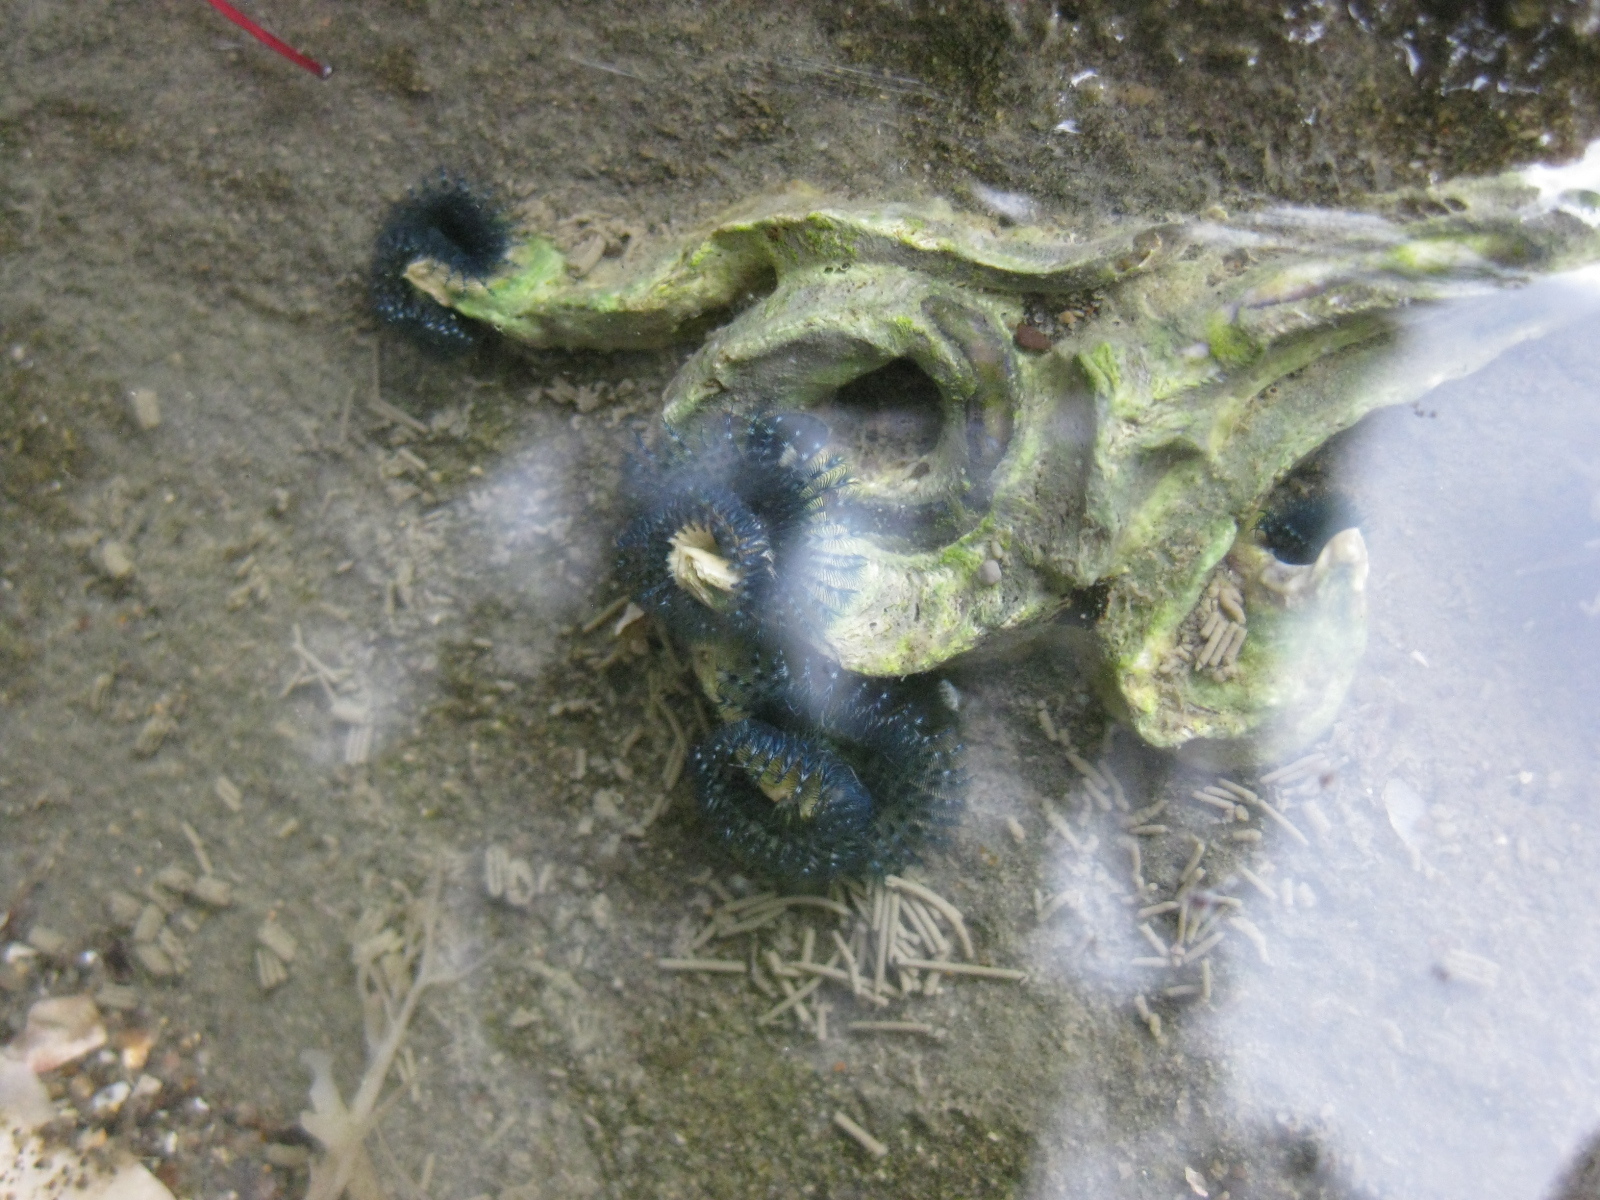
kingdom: Animalia
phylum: Annelida
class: Polychaeta
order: Sabellida
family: Serpulidae
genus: Spirobranchus
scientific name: Spirobranchus cariniferus
